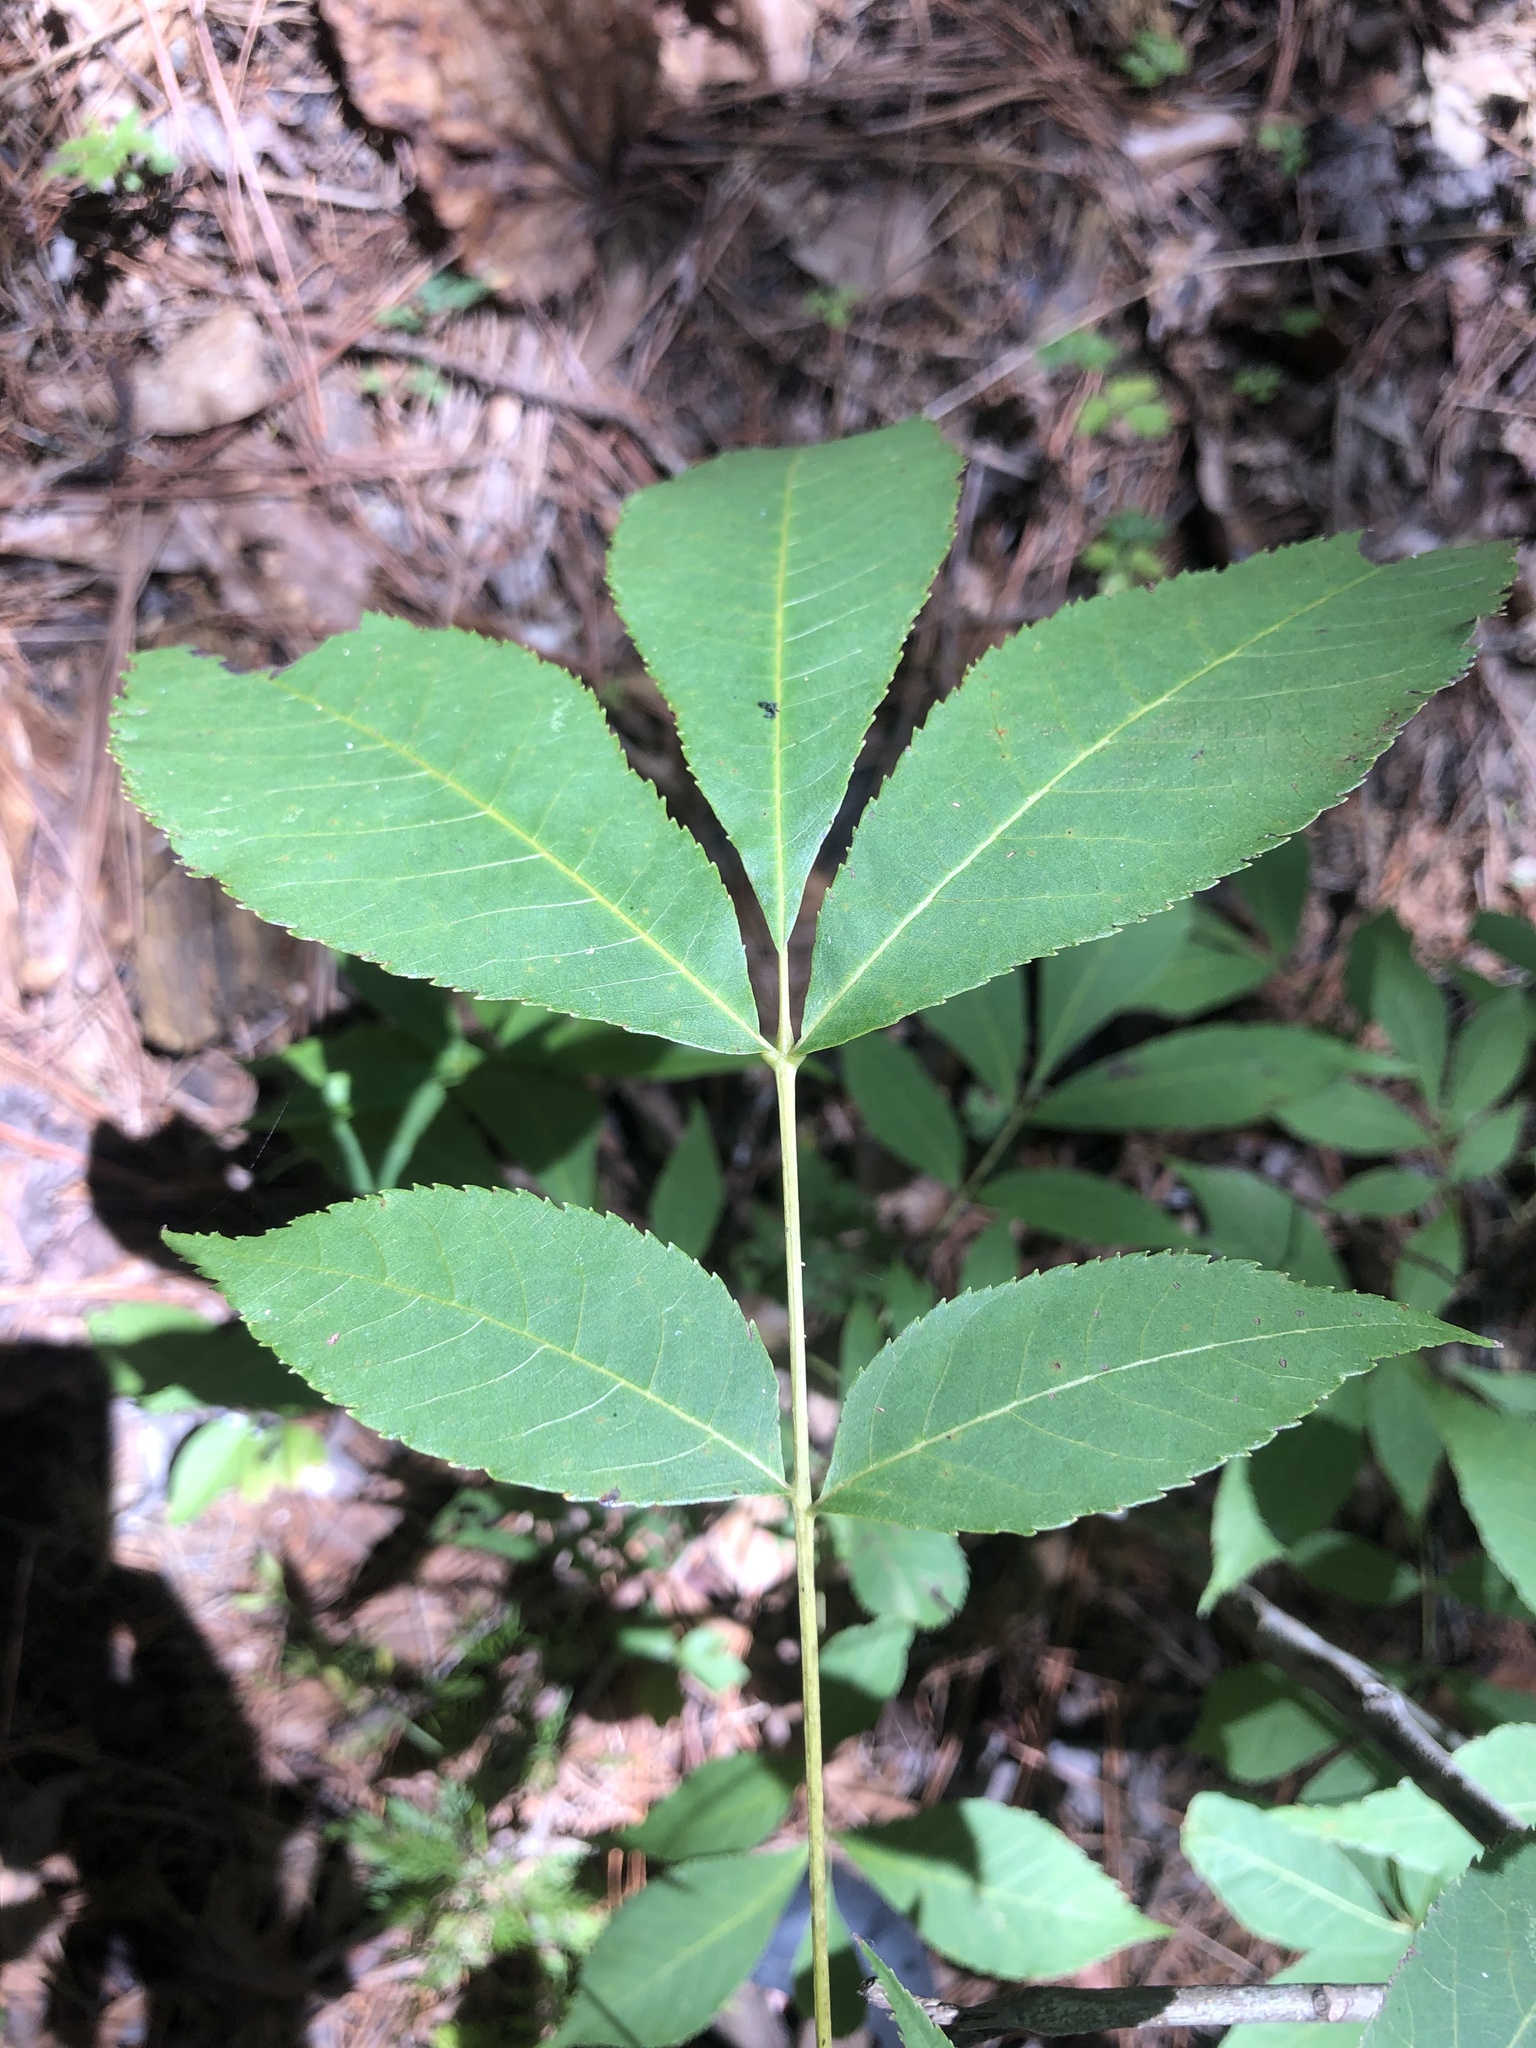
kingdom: Plantae
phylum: Tracheophyta
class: Magnoliopsida
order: Fagales
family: Juglandaceae
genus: Carya
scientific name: Carya carolinae-septentrionalis
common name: Carolina hickory
